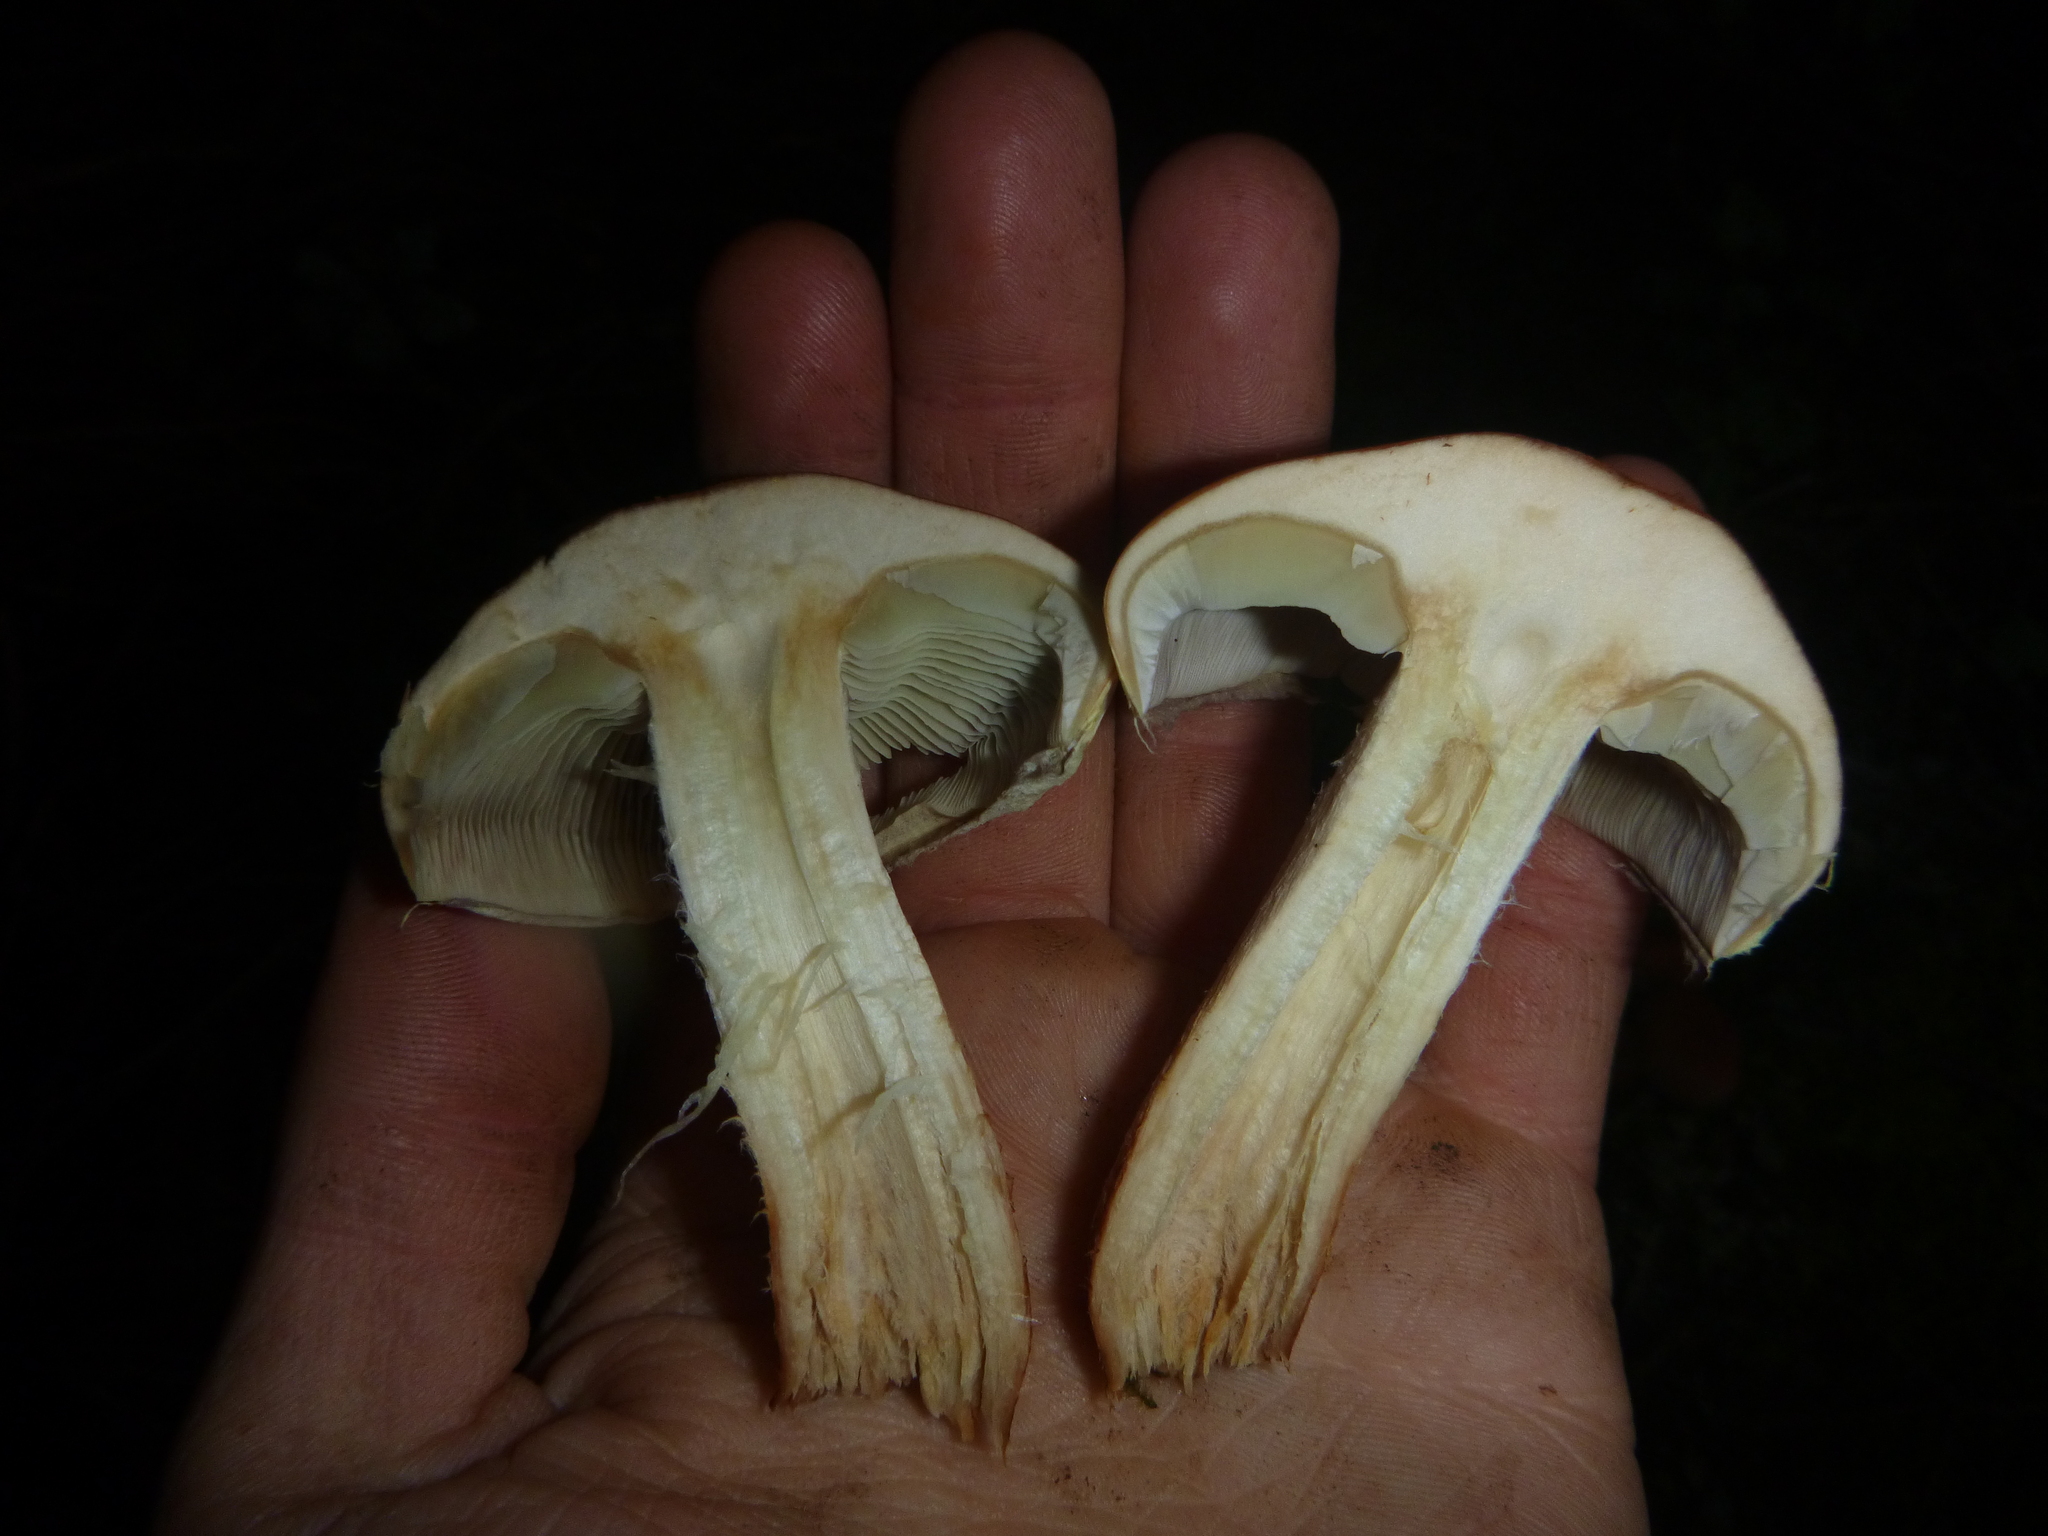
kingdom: Fungi
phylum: Basidiomycota
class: Agaricomycetes
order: Agaricales
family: Strophariaceae
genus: Hypholoma
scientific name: Hypholoma lateritium
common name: Brick caps
